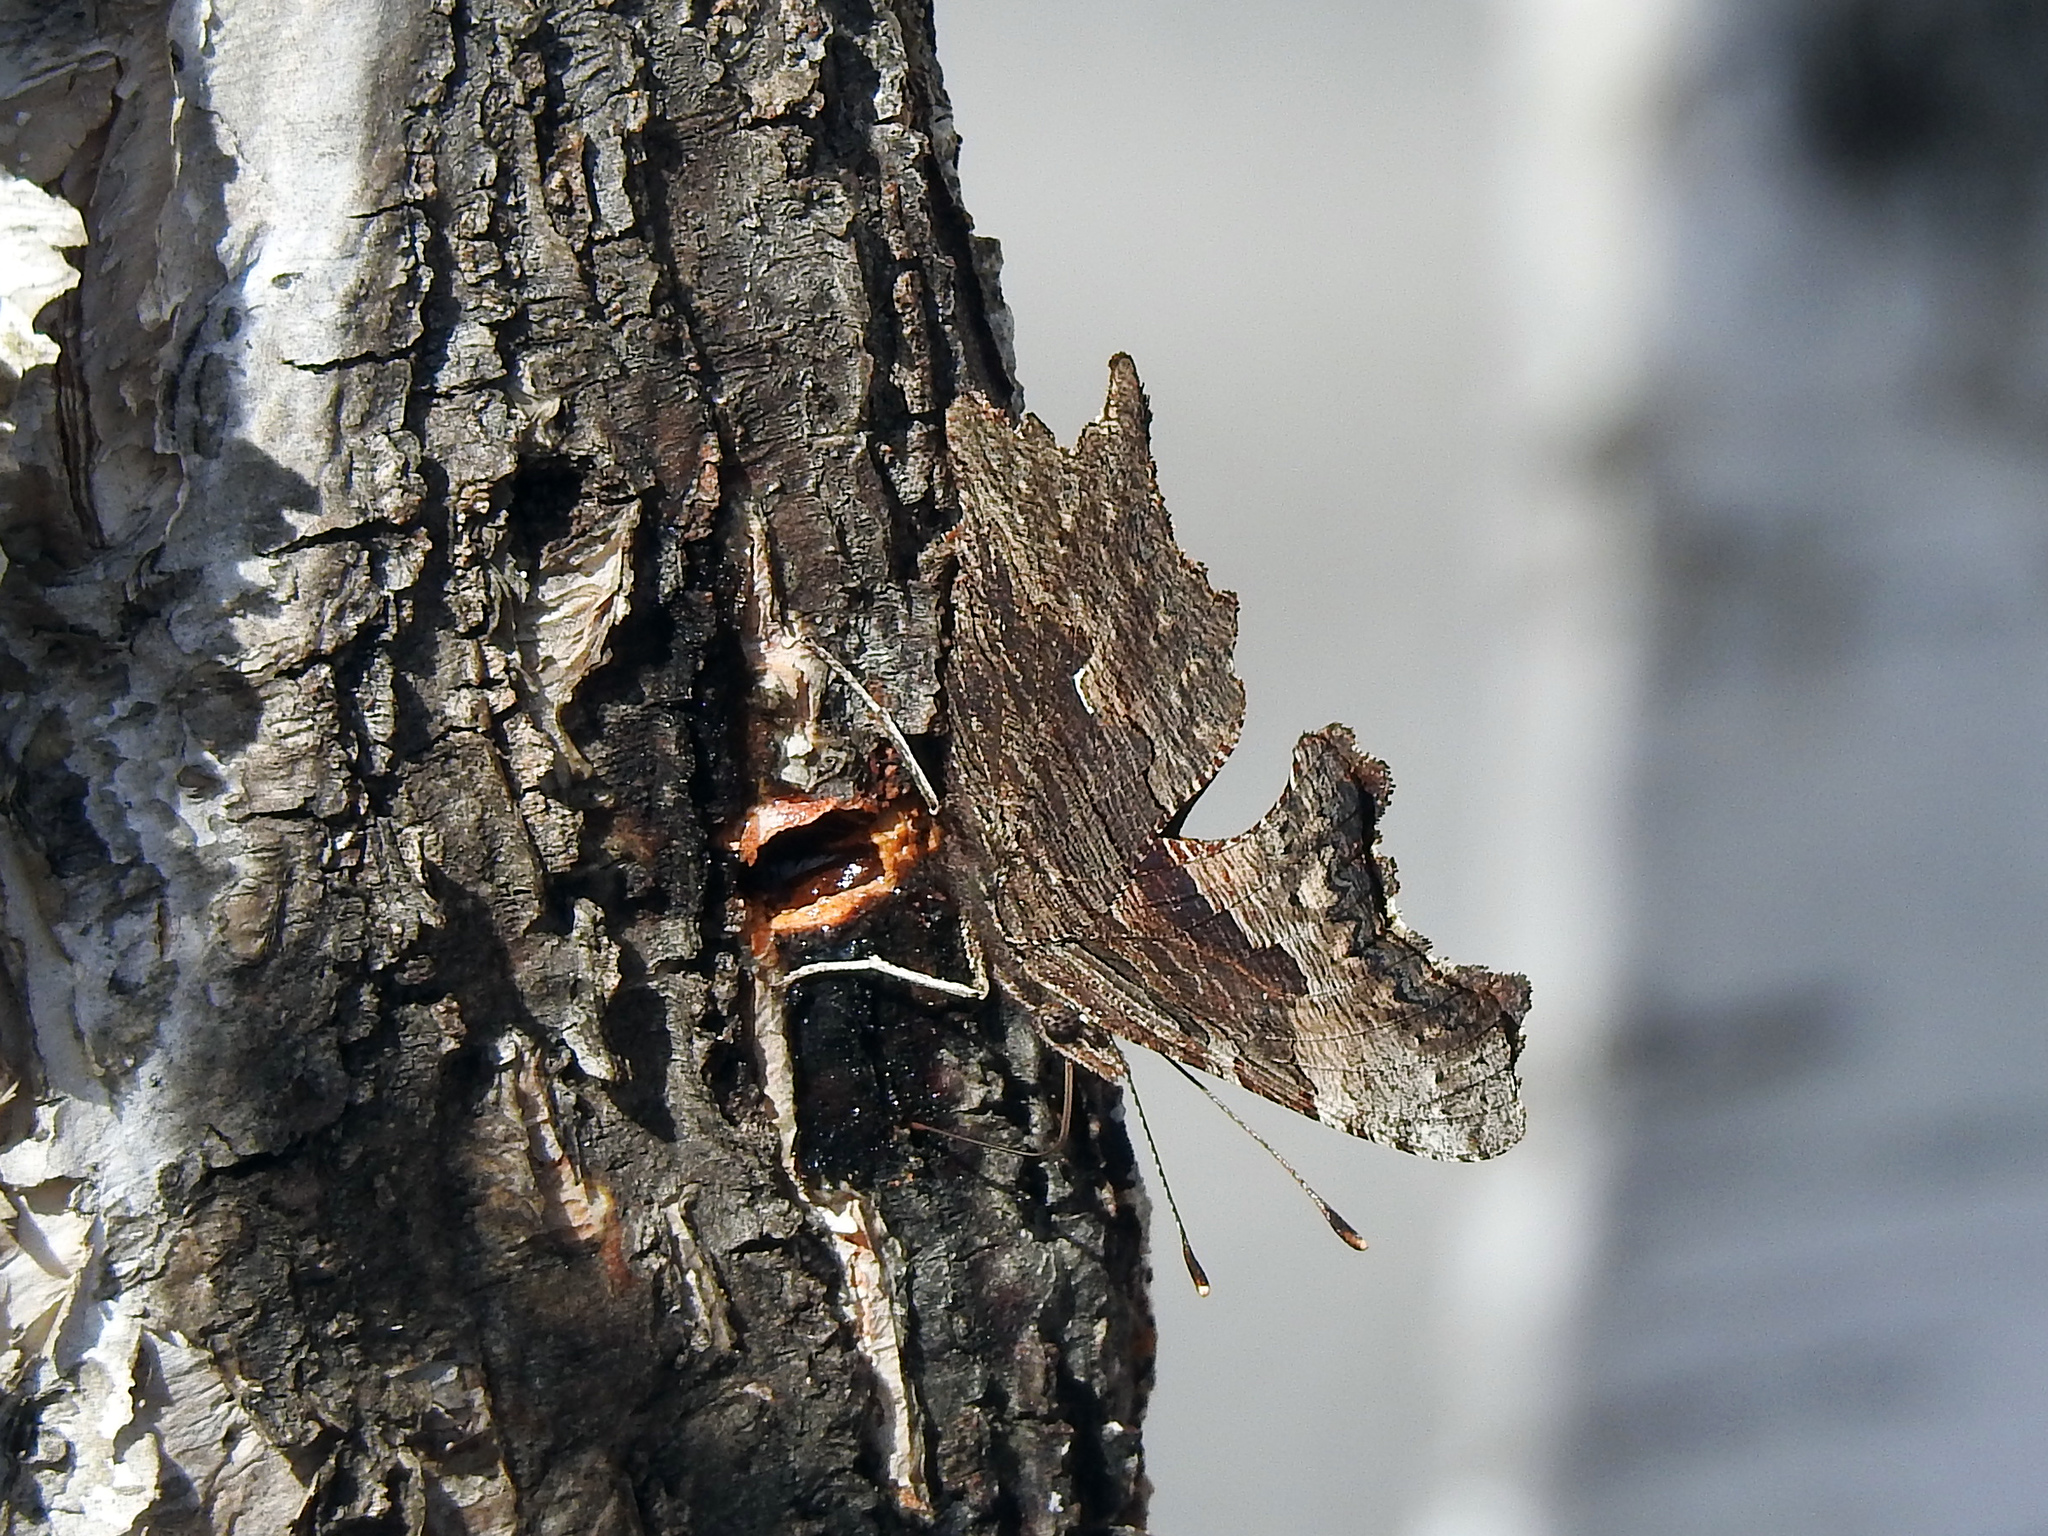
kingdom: Animalia
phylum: Arthropoda
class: Insecta
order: Lepidoptera
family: Nymphalidae
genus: Polygonia
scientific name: Polygonia progne
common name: Gray comma
